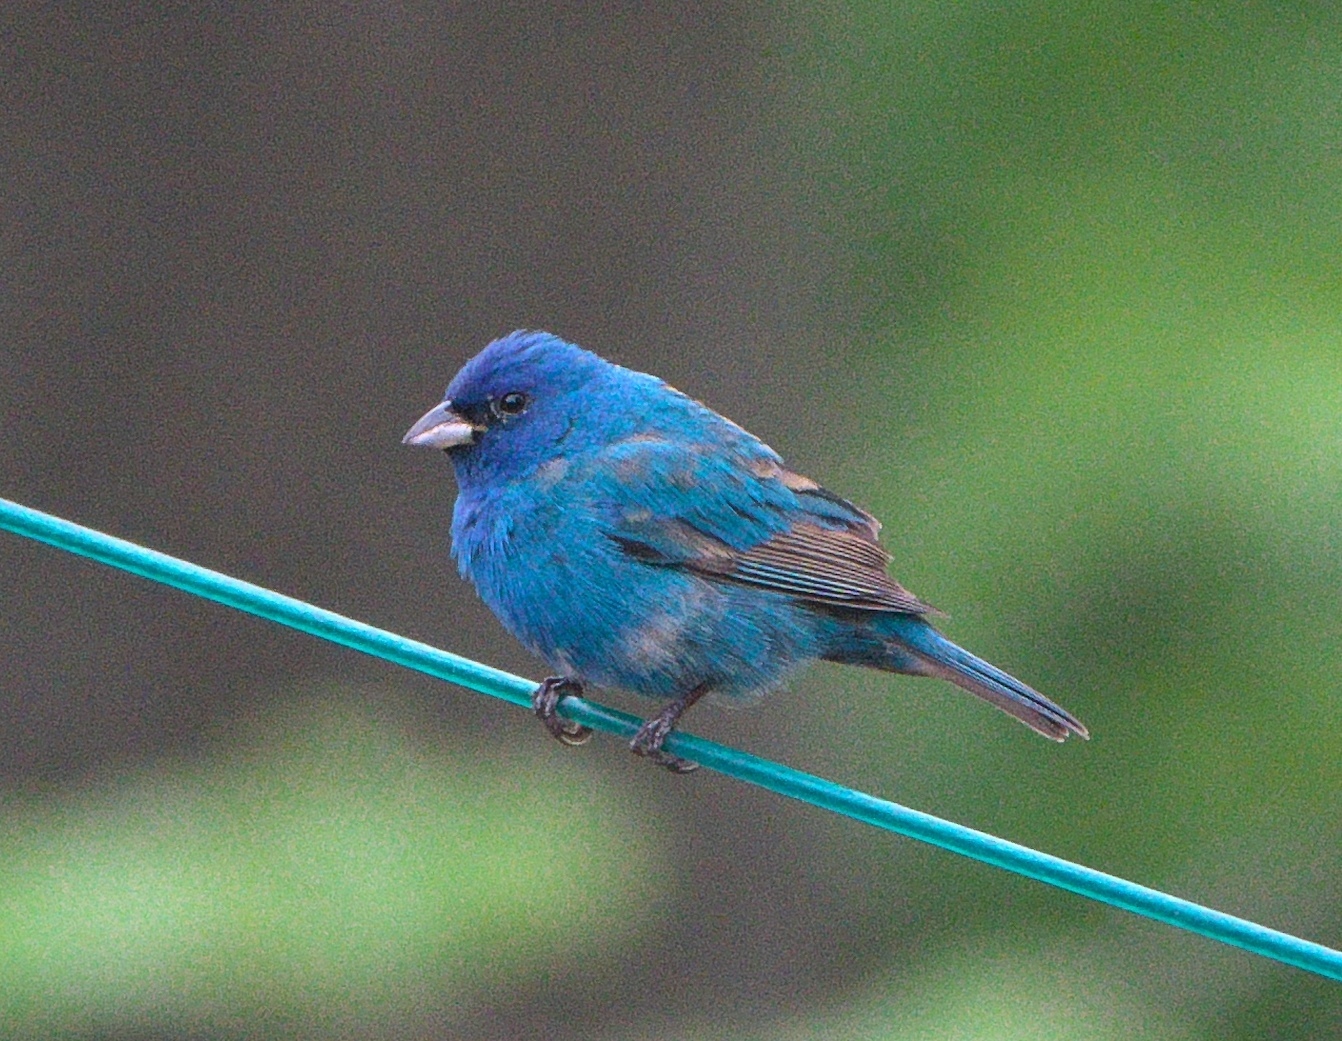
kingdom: Animalia
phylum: Chordata
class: Aves
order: Passeriformes
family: Cardinalidae
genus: Passerina
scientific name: Passerina cyanea
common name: Indigo bunting
